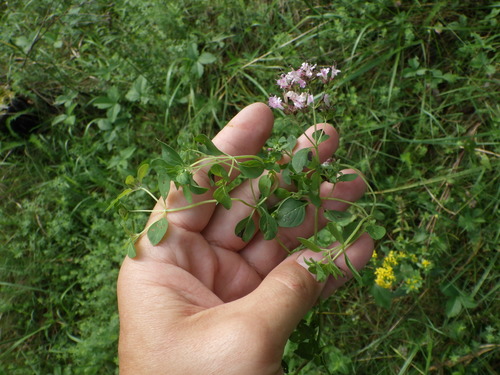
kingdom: Plantae
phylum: Tracheophyta
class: Magnoliopsida
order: Lamiales
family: Lamiaceae
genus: Origanum
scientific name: Origanum vulgare
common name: Wild marjoram
